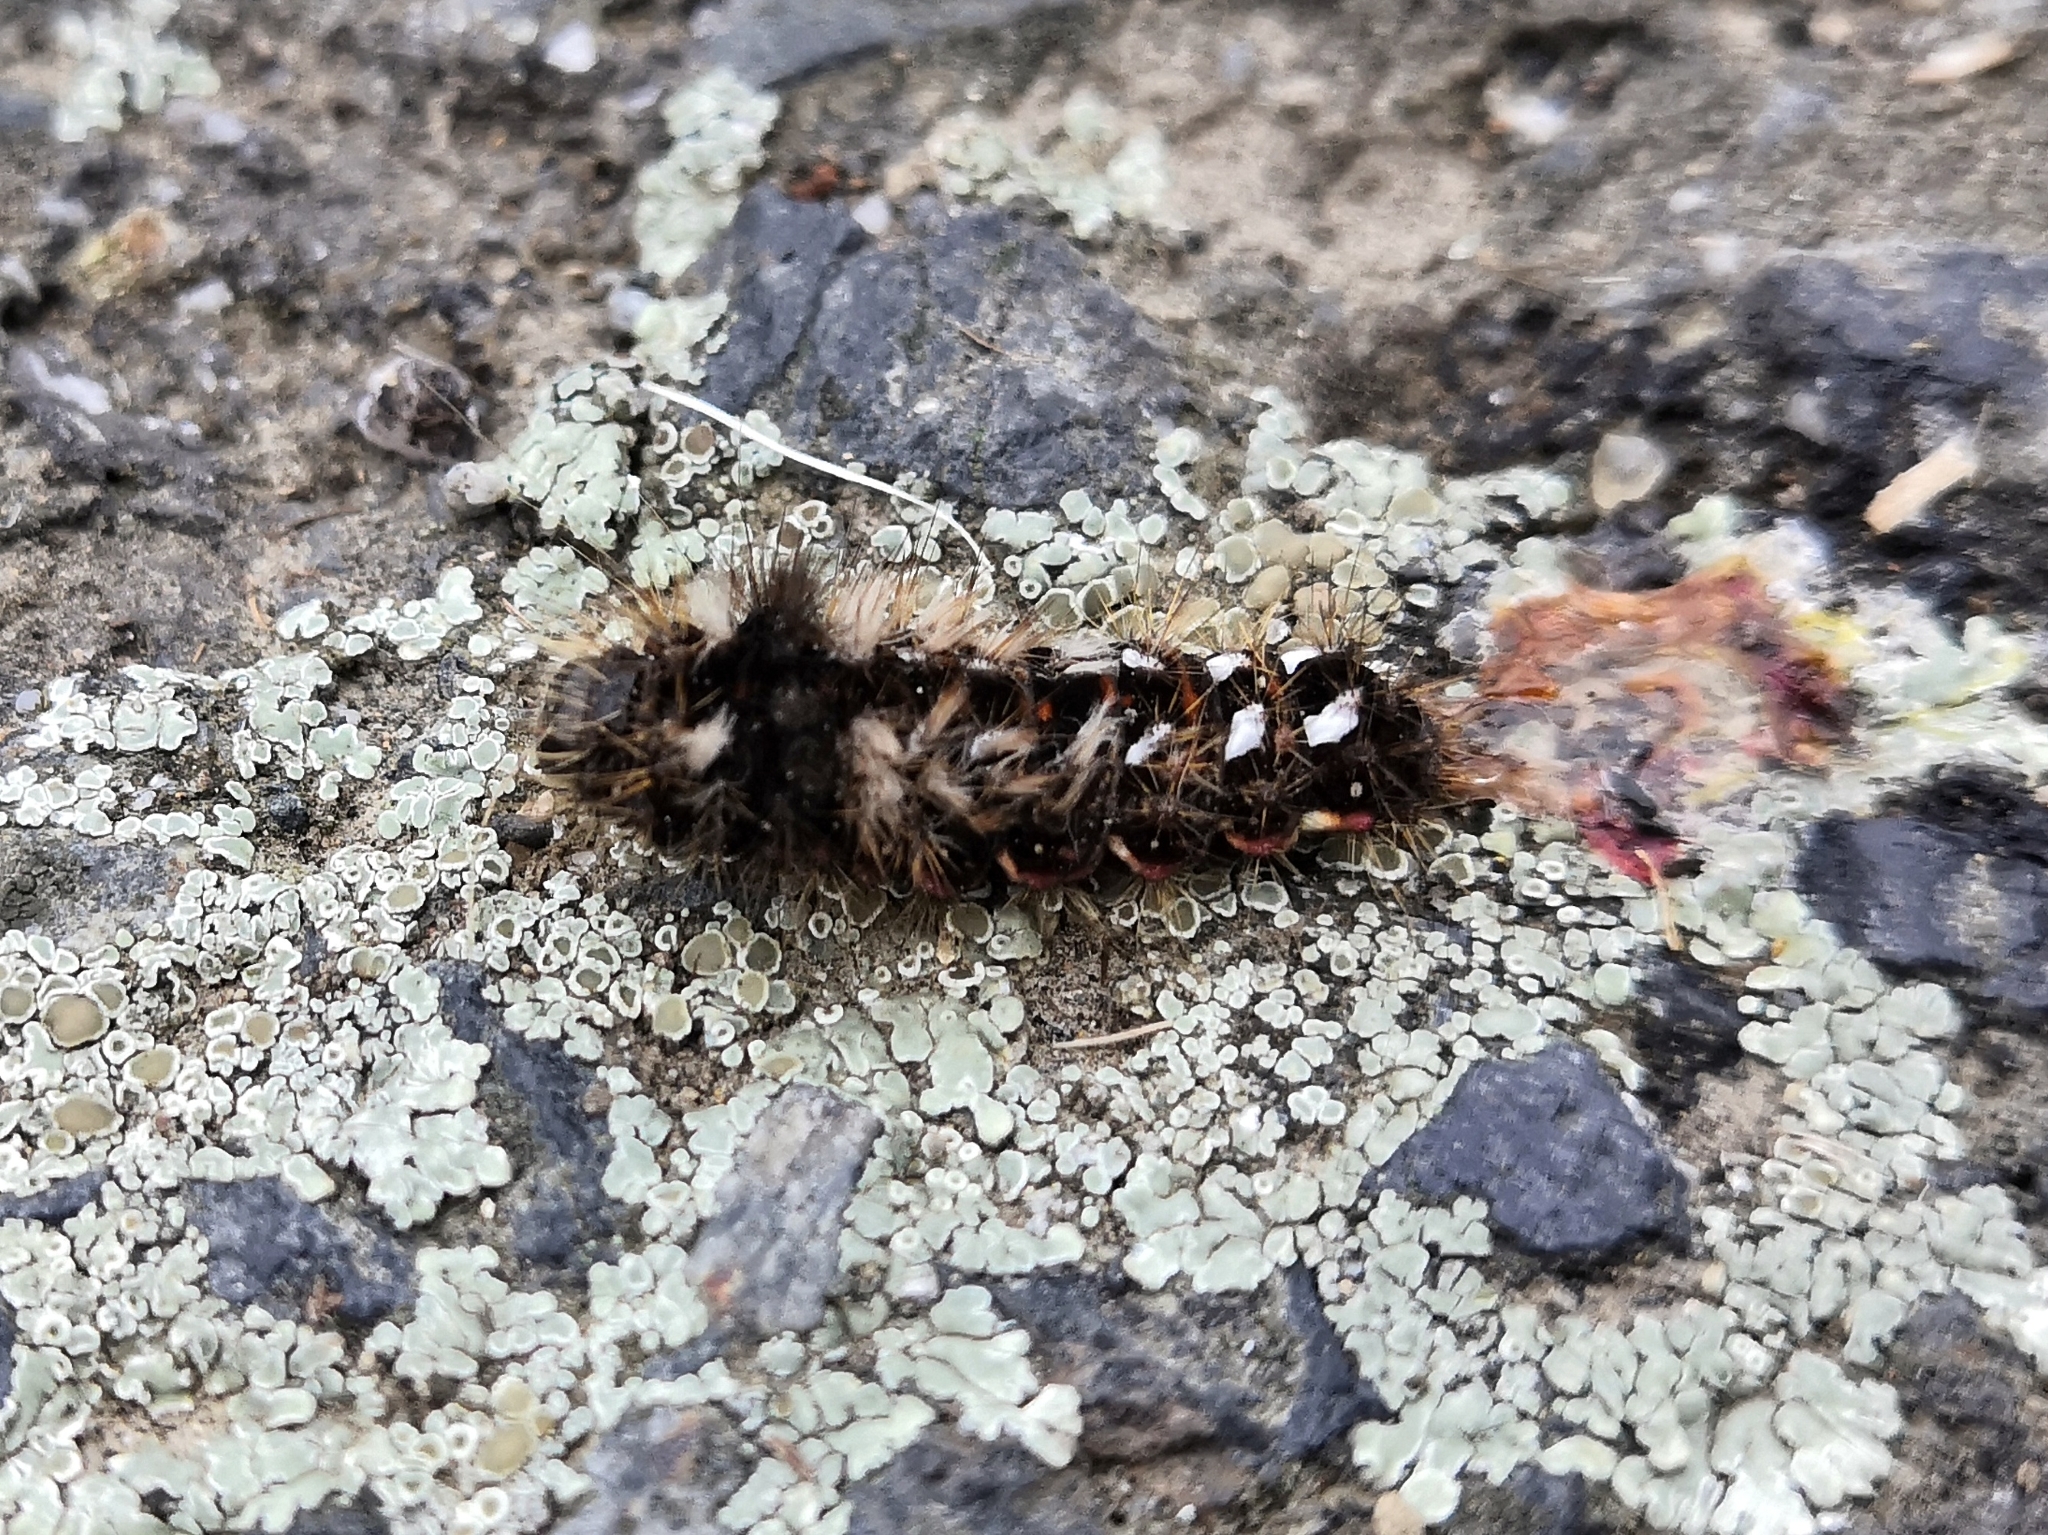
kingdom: Animalia
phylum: Arthropoda
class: Insecta
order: Lepidoptera
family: Noctuidae
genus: Acronicta
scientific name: Acronicta rumicis
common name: Knot grass
